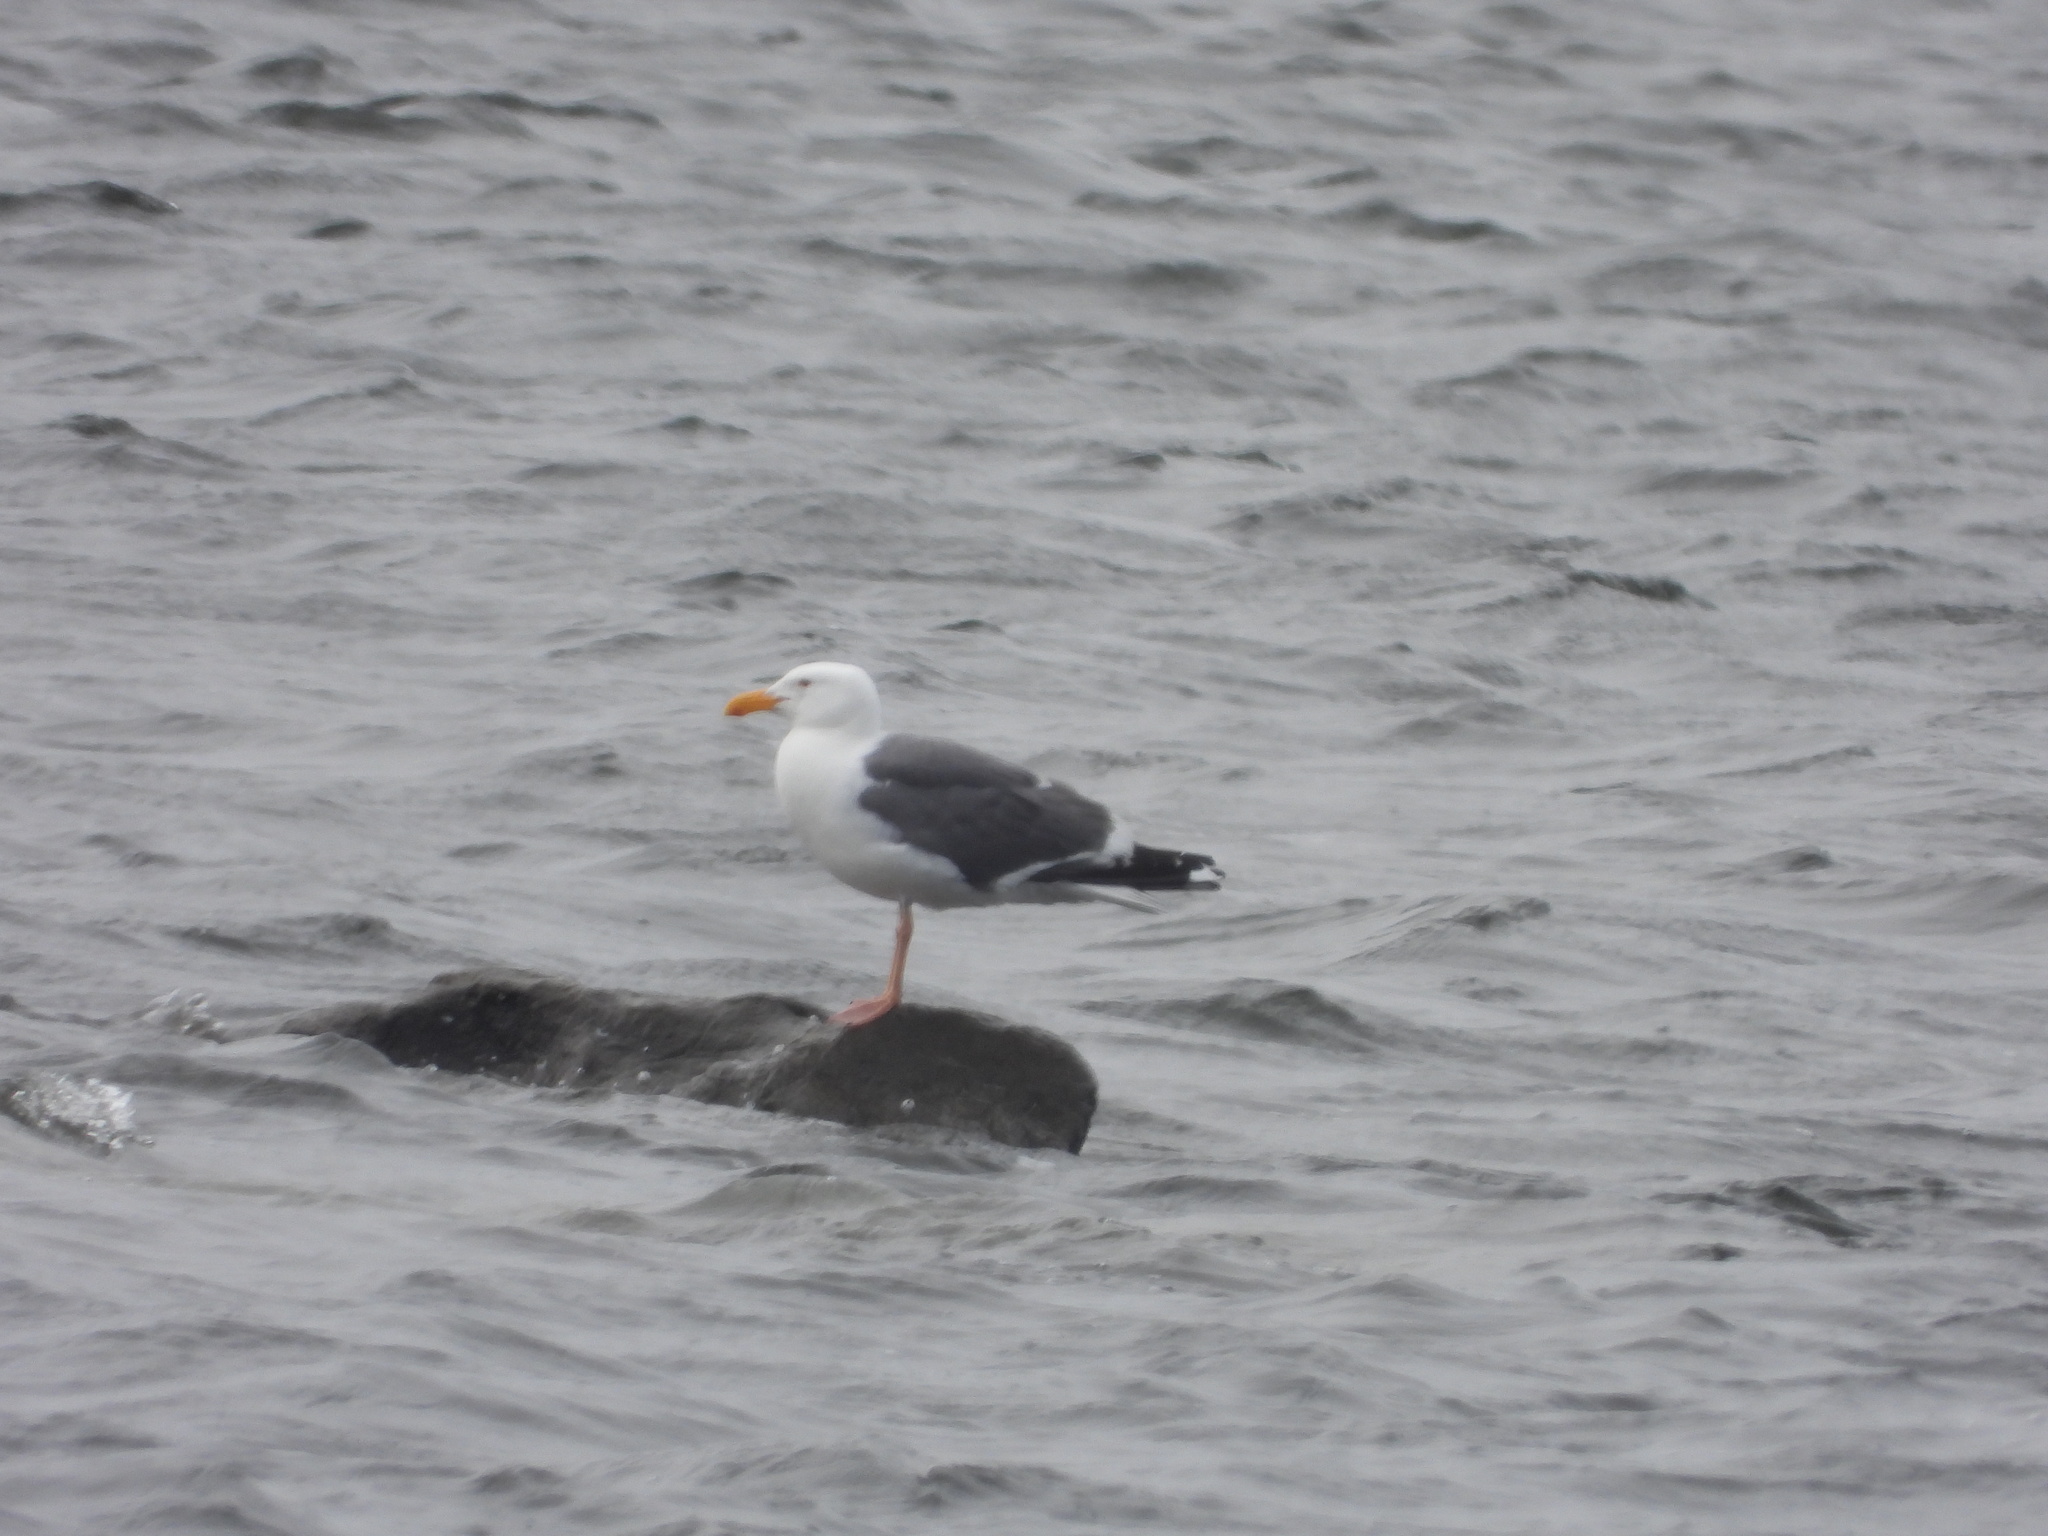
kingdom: Animalia
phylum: Chordata
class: Aves
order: Charadriiformes
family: Laridae
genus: Larus
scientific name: Larus occidentalis
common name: Western gull
